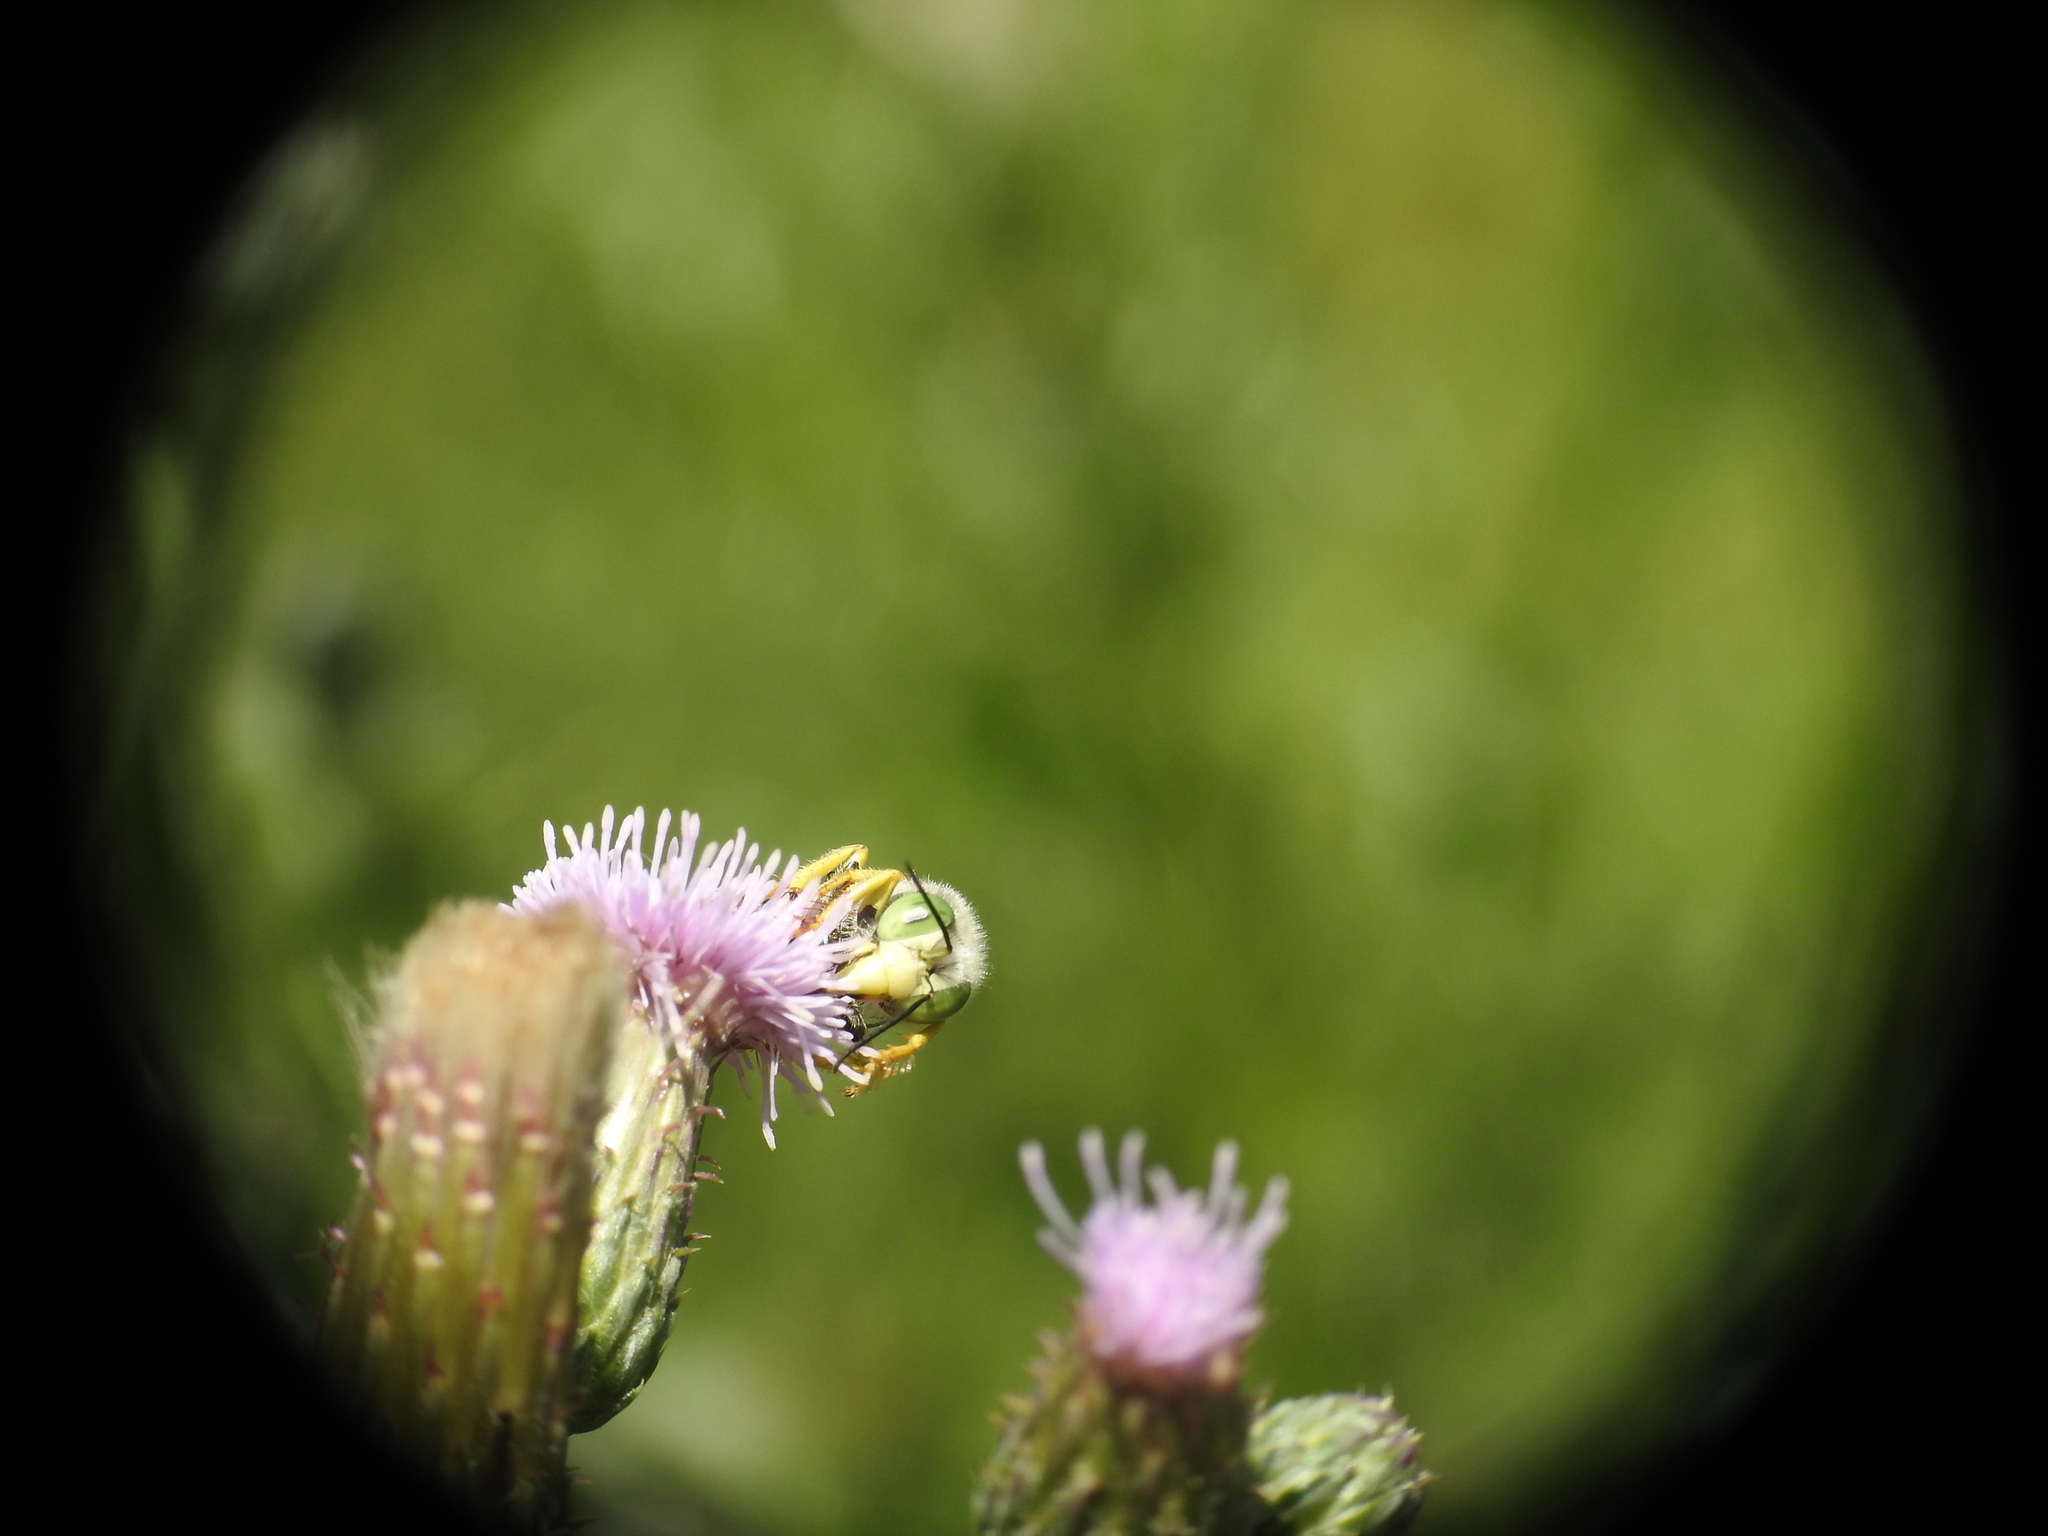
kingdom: Animalia
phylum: Arthropoda
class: Insecta
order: Hymenoptera
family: Crabronidae
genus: Bembix
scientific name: Bembix americana
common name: American sand wasp
